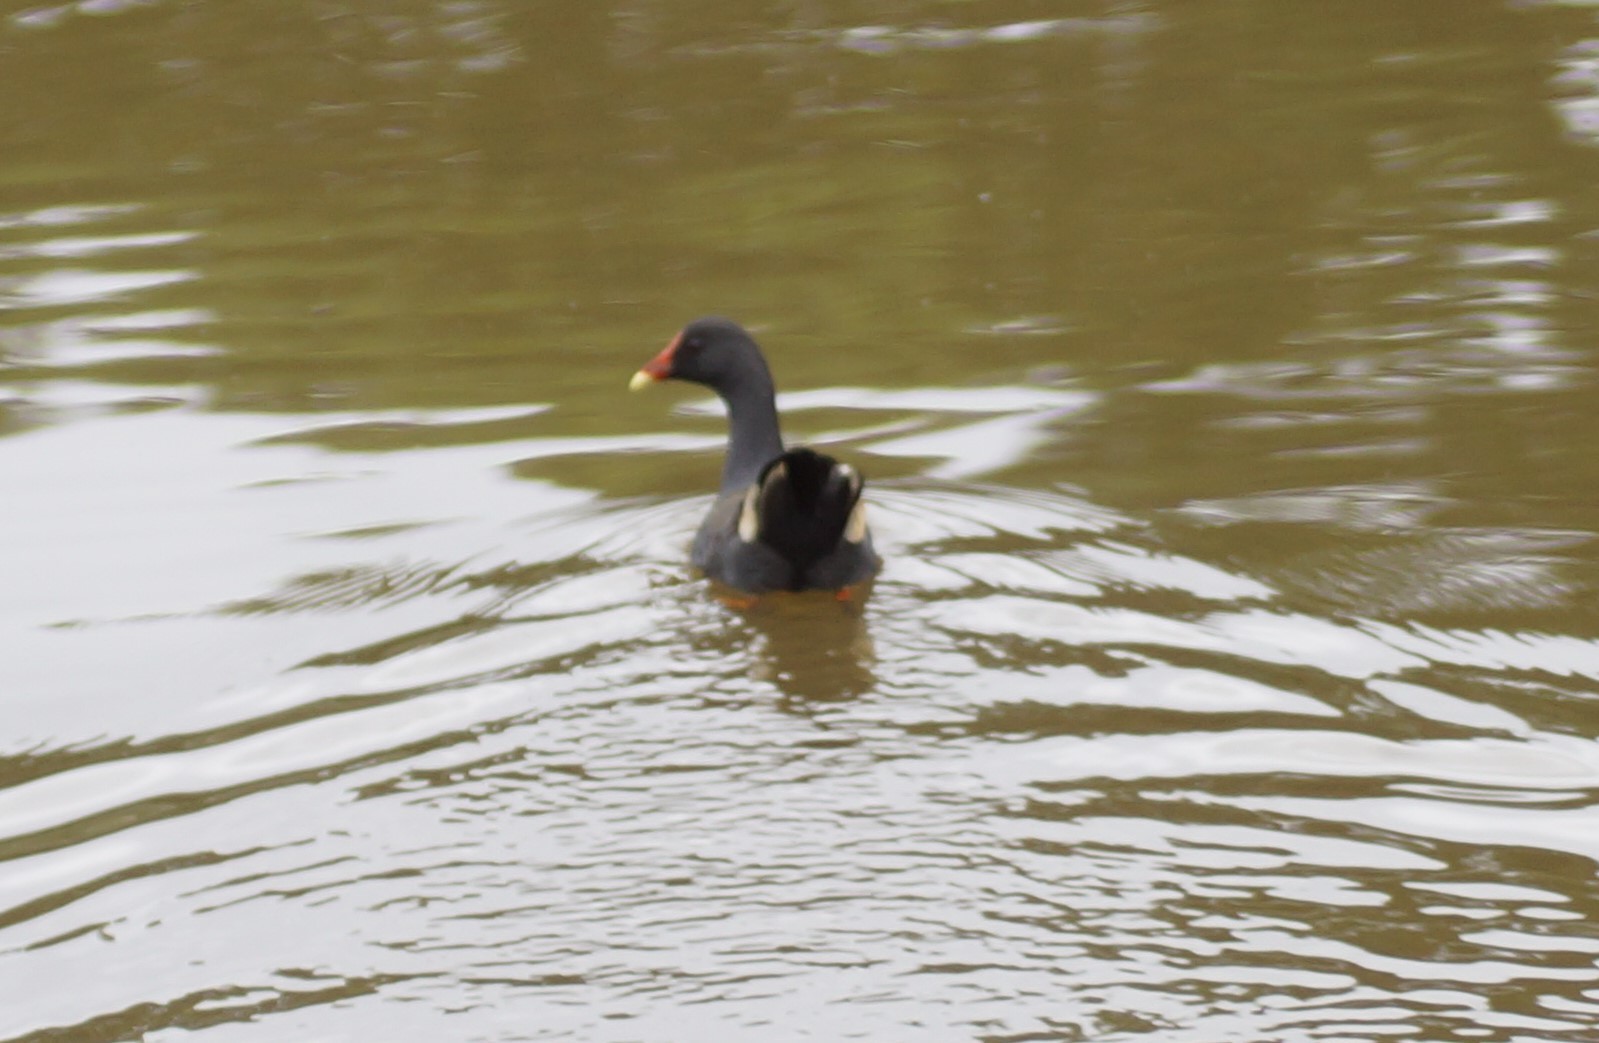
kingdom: Animalia
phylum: Chordata
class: Aves
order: Gruiformes
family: Rallidae
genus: Gallinula
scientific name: Gallinula tenebrosa
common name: Dusky moorhen
